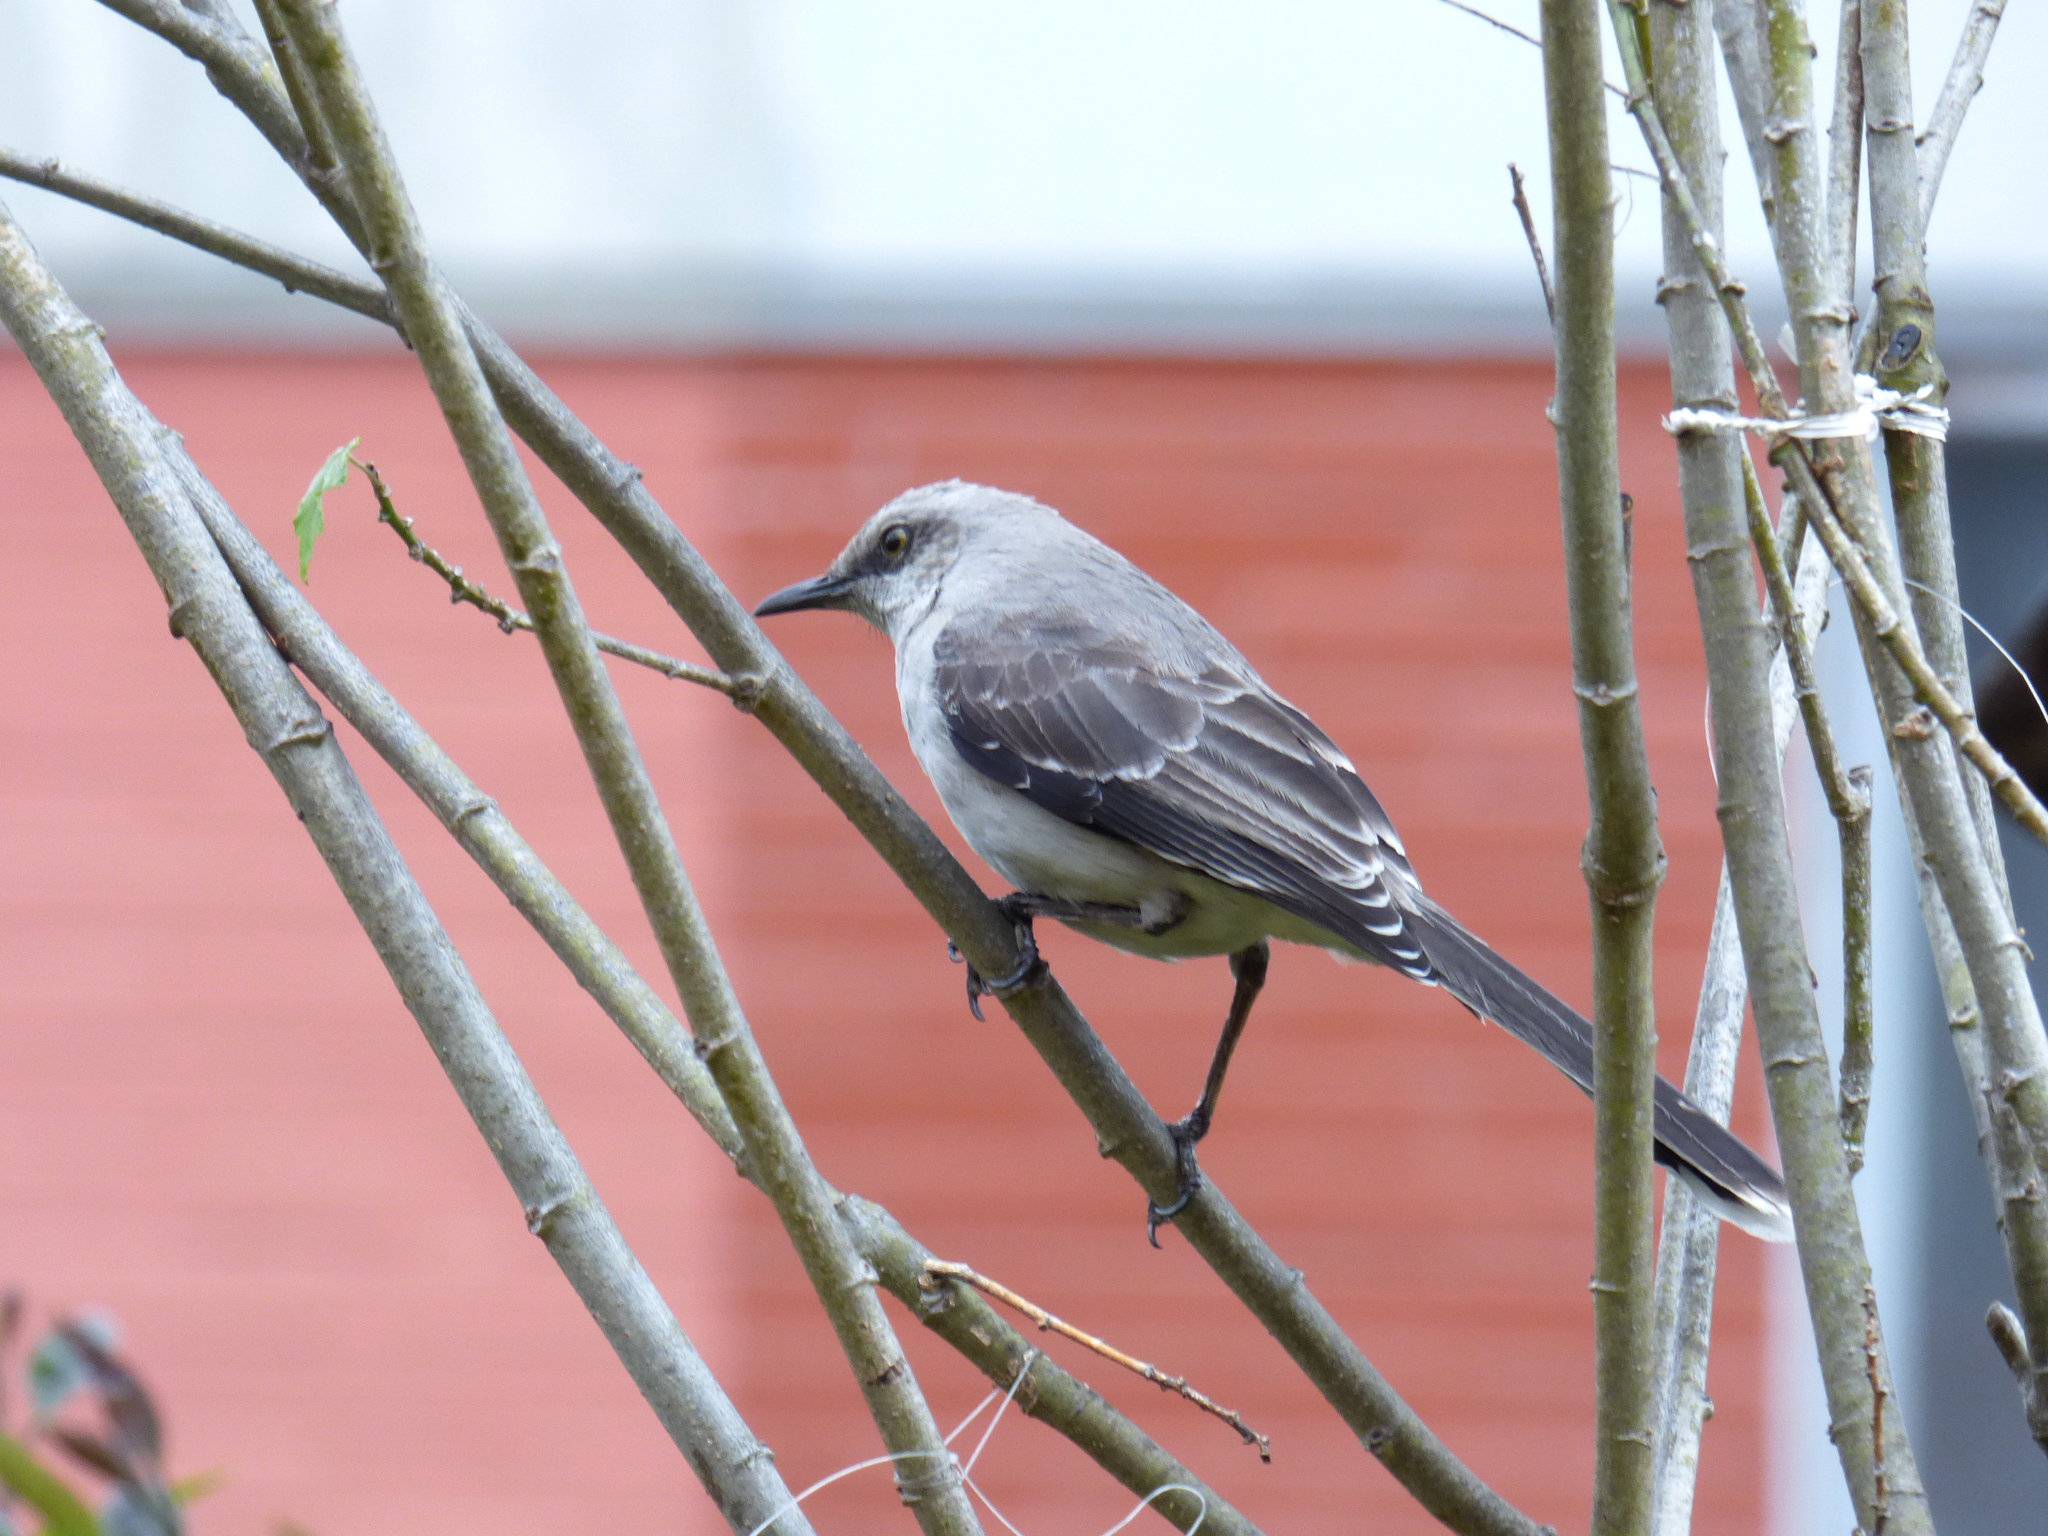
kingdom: Animalia
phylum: Chordata
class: Aves
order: Passeriformes
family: Mimidae
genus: Mimus
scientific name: Mimus gilvus
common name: Tropical mockingbird
